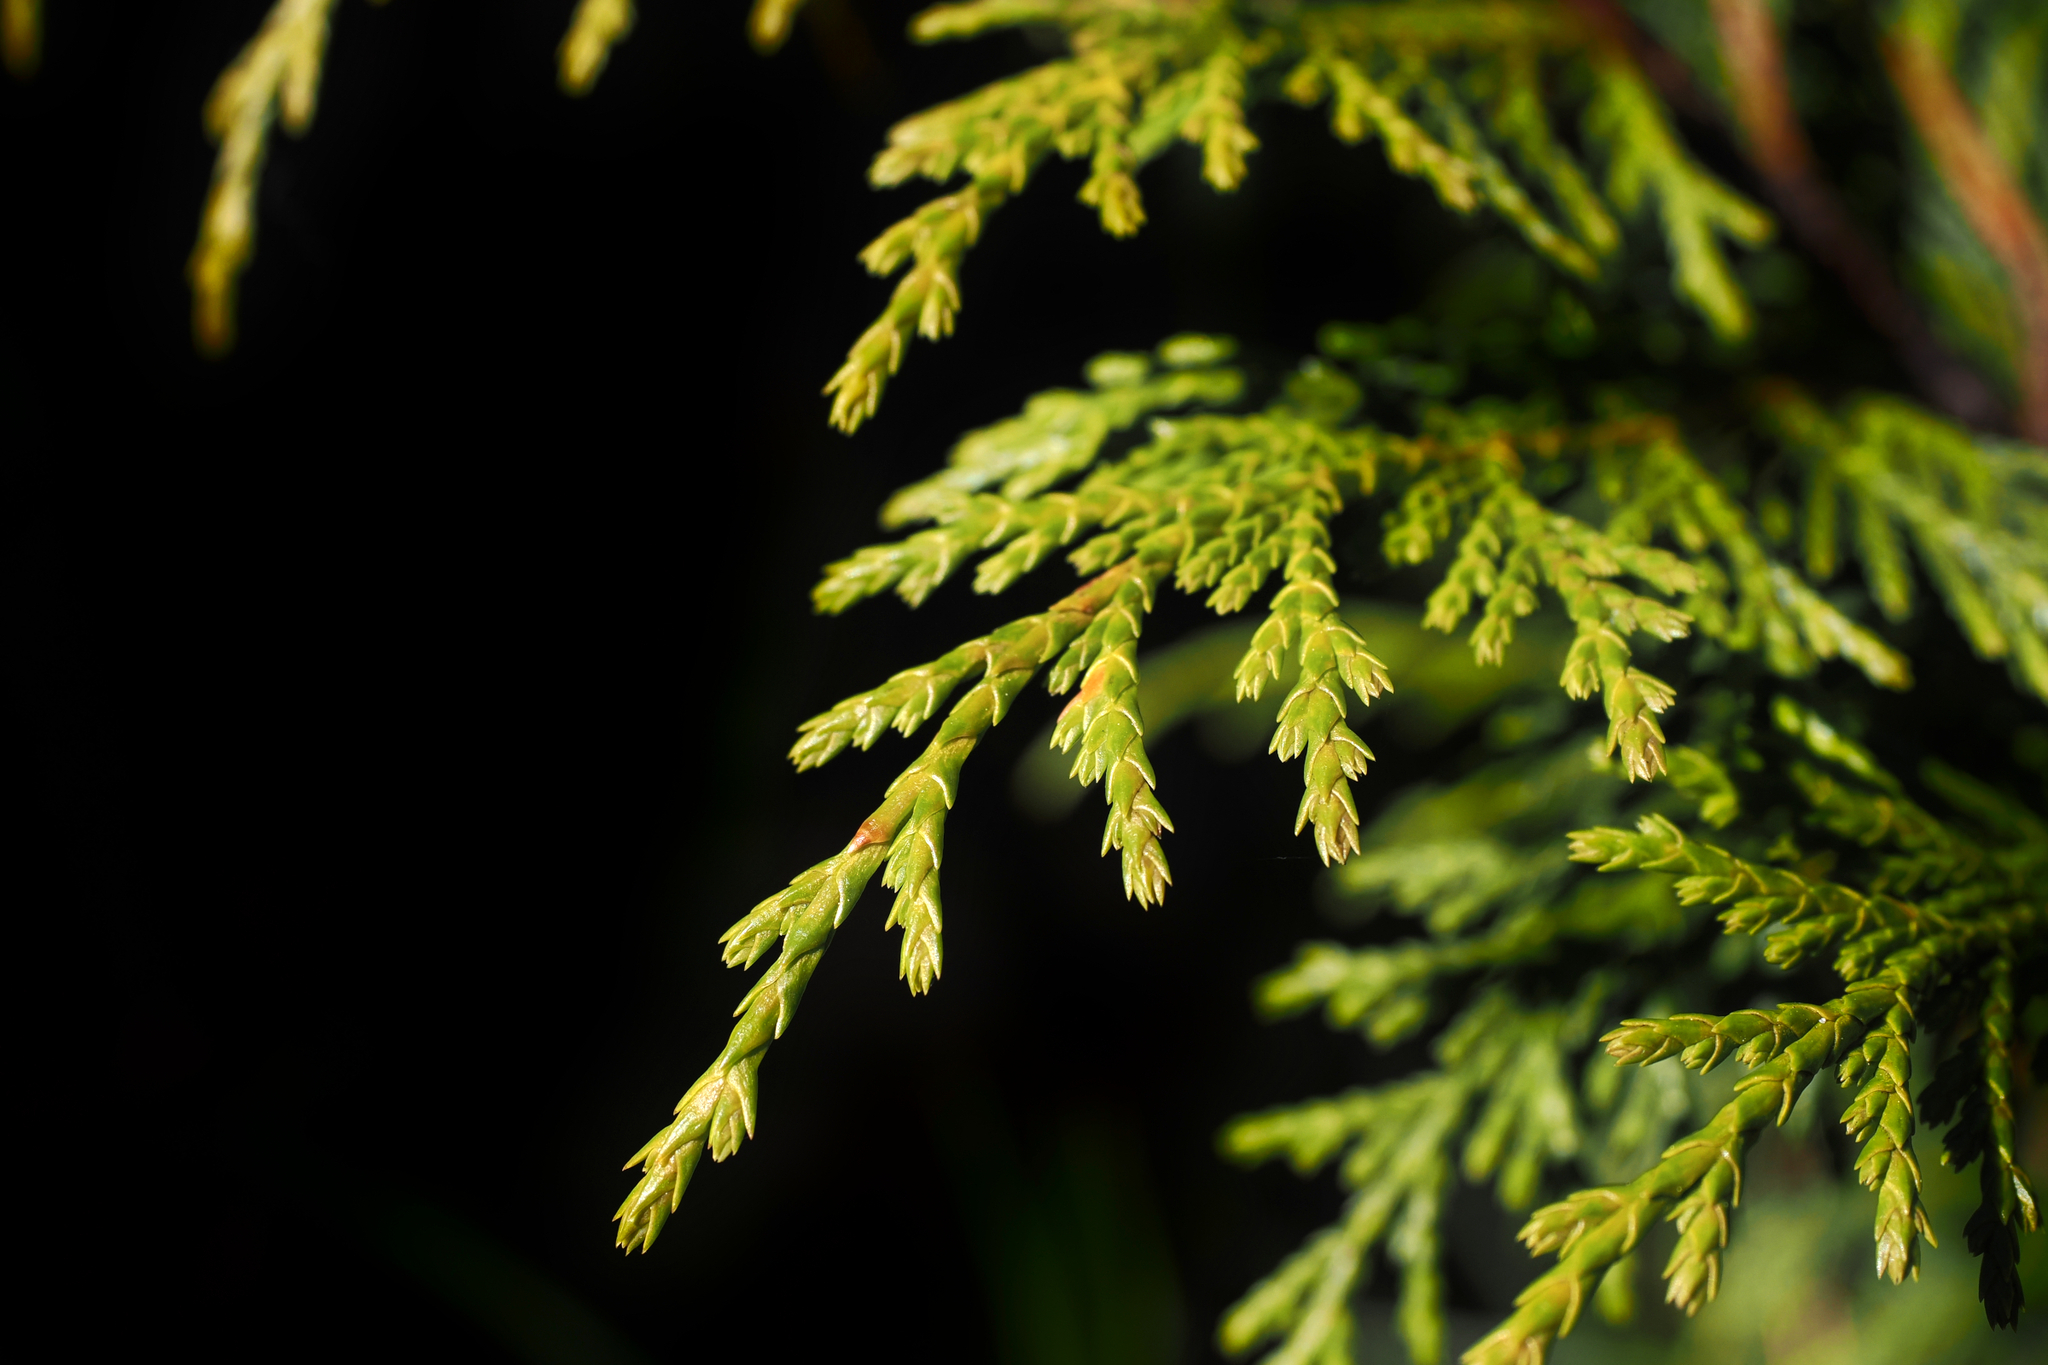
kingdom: Plantae
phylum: Tracheophyta
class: Pinopsida
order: Pinales
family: Cupressaceae
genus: Xanthocyparis
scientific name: Xanthocyparis nootkatensis
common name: Nootka cypress
